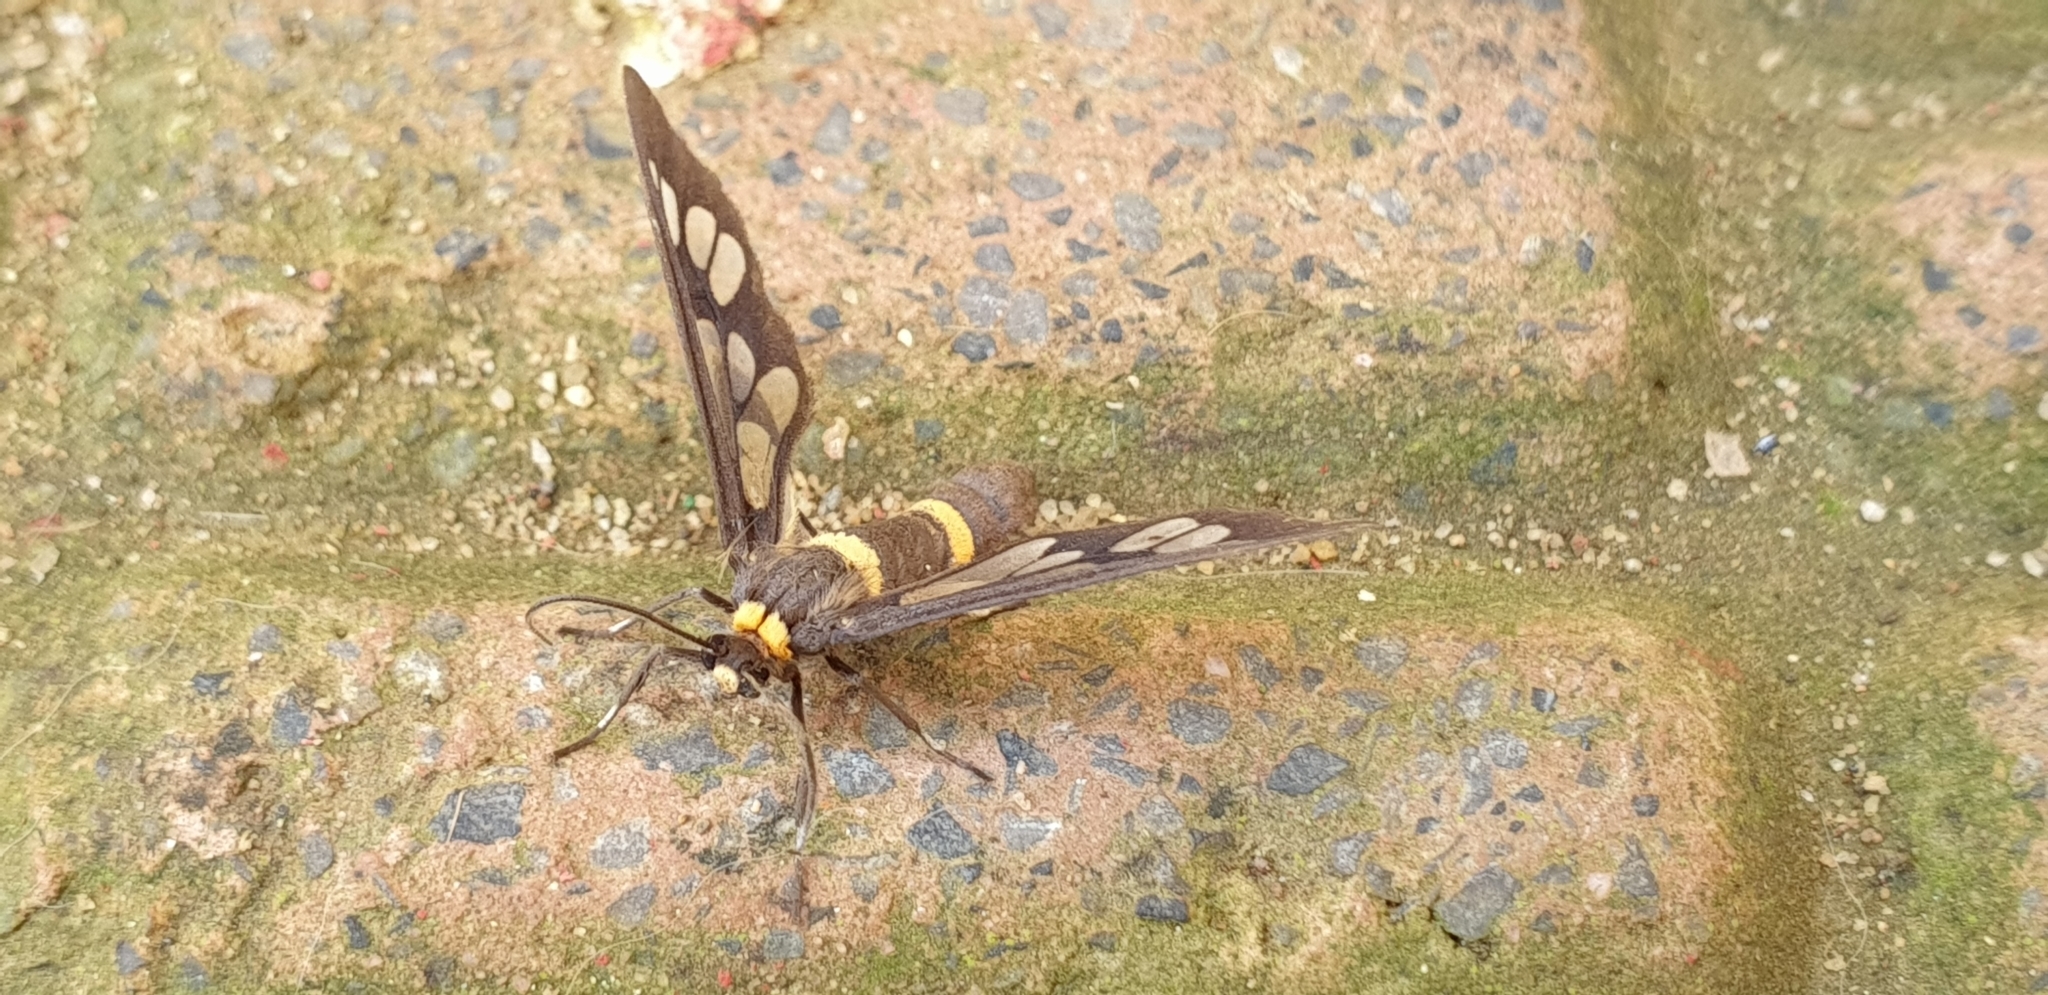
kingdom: Animalia
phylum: Arthropoda
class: Insecta
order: Lepidoptera
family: Erebidae
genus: Syntomoides
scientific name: Syntomoides imaon
